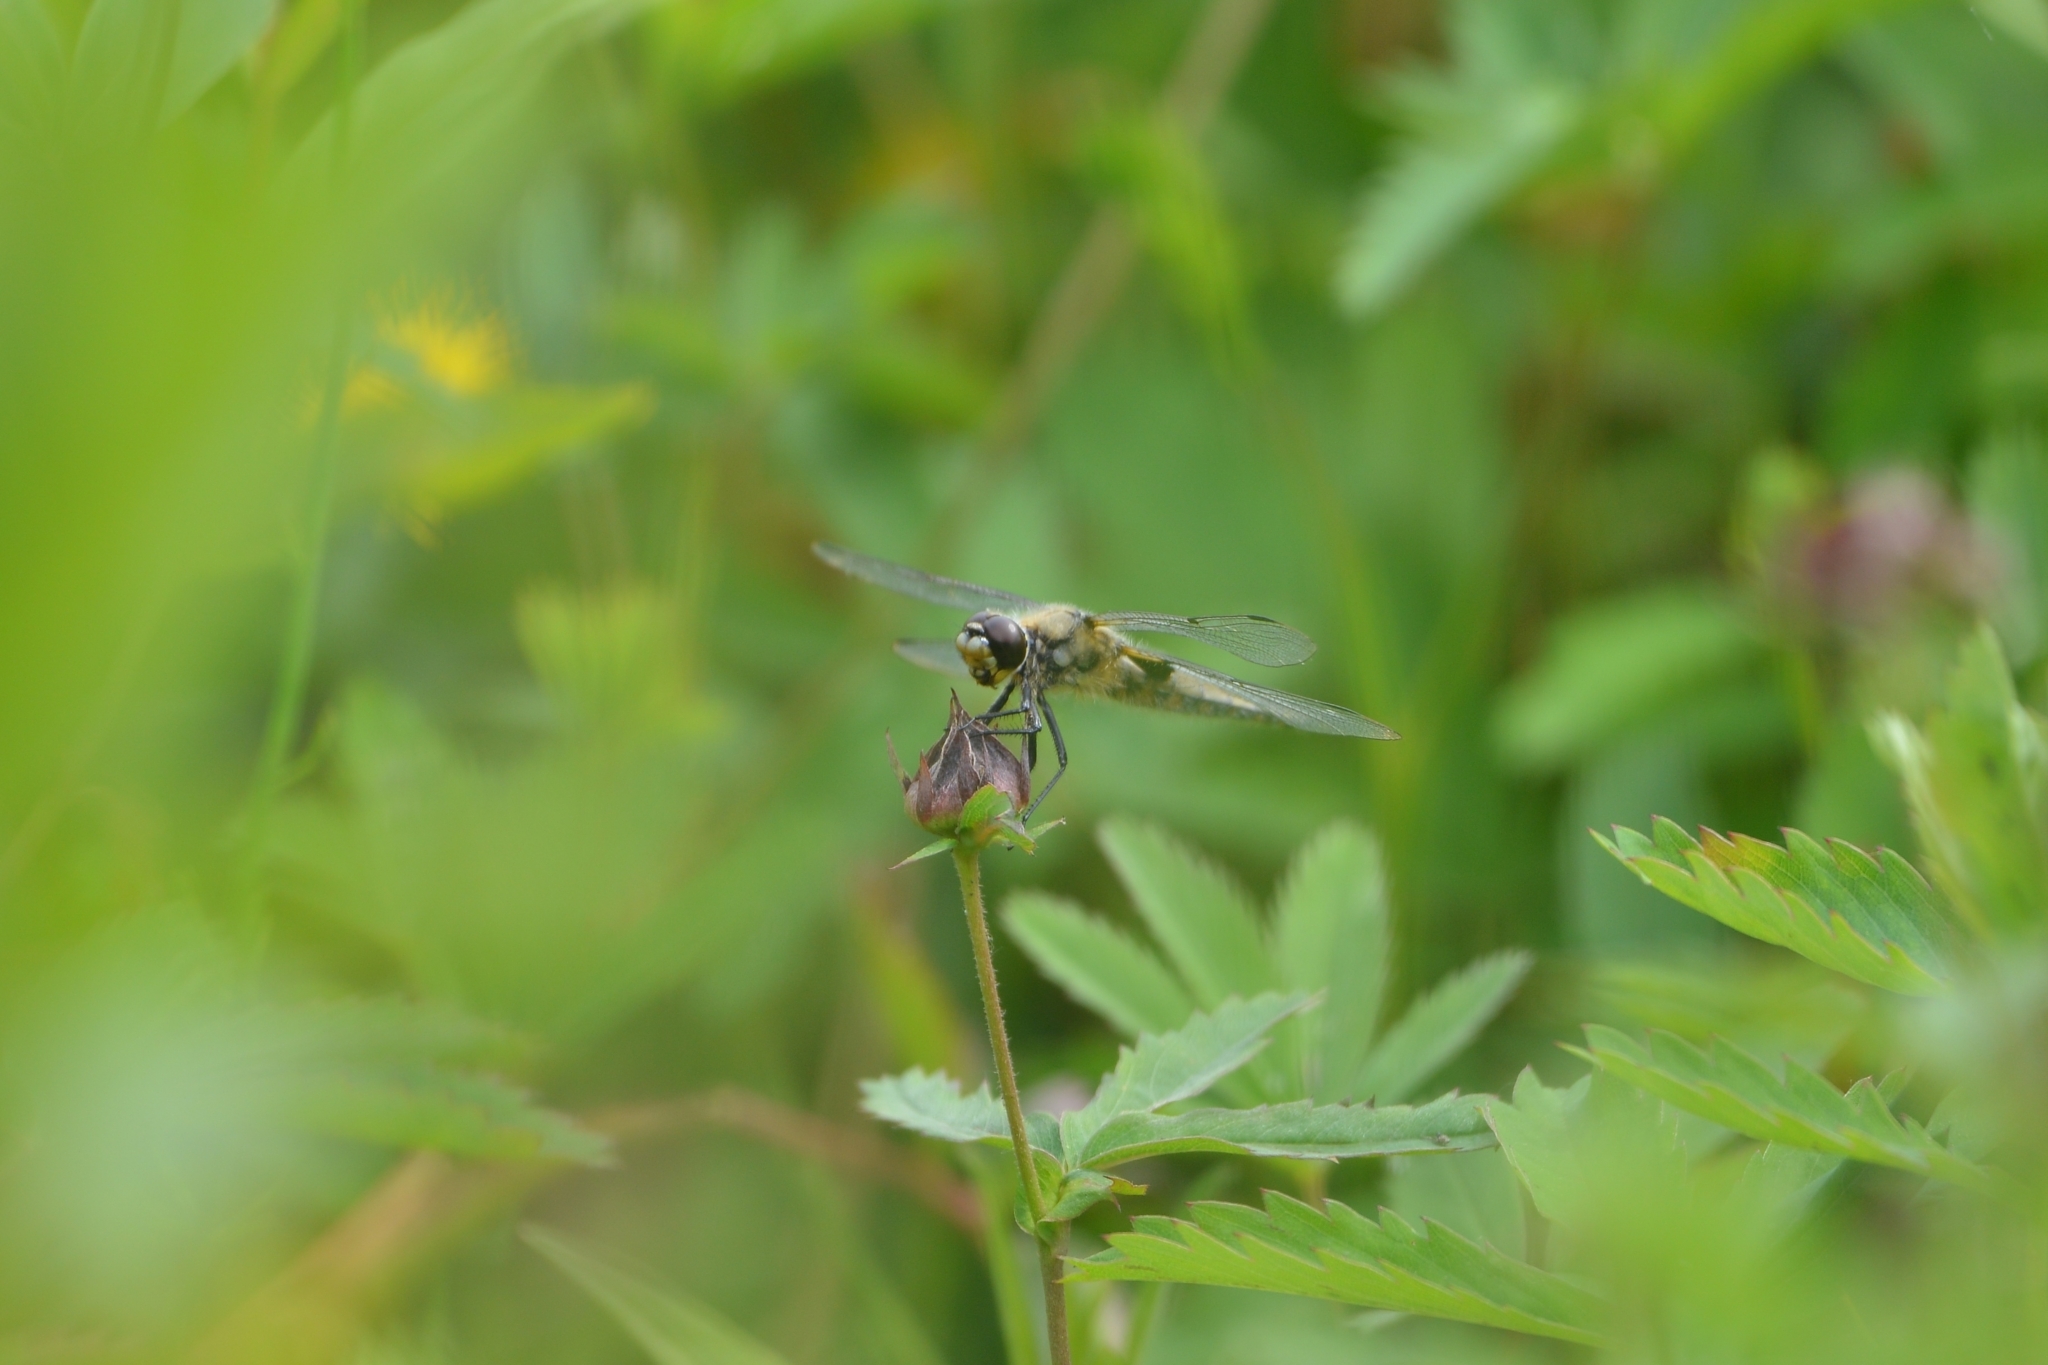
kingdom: Animalia
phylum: Arthropoda
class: Insecta
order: Odonata
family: Libellulidae
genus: Libellula
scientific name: Libellula quadrimaculata
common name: Four-spotted chaser
